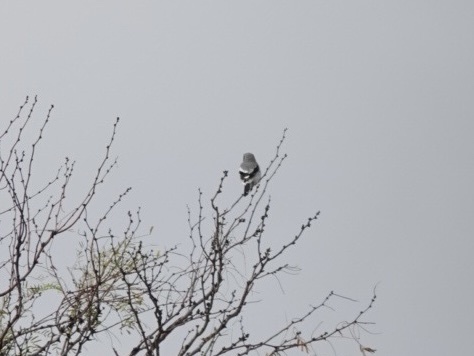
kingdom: Animalia
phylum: Chordata
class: Aves
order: Passeriformes
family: Laniidae
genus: Lanius
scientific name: Lanius ludovicianus
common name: Loggerhead shrike
